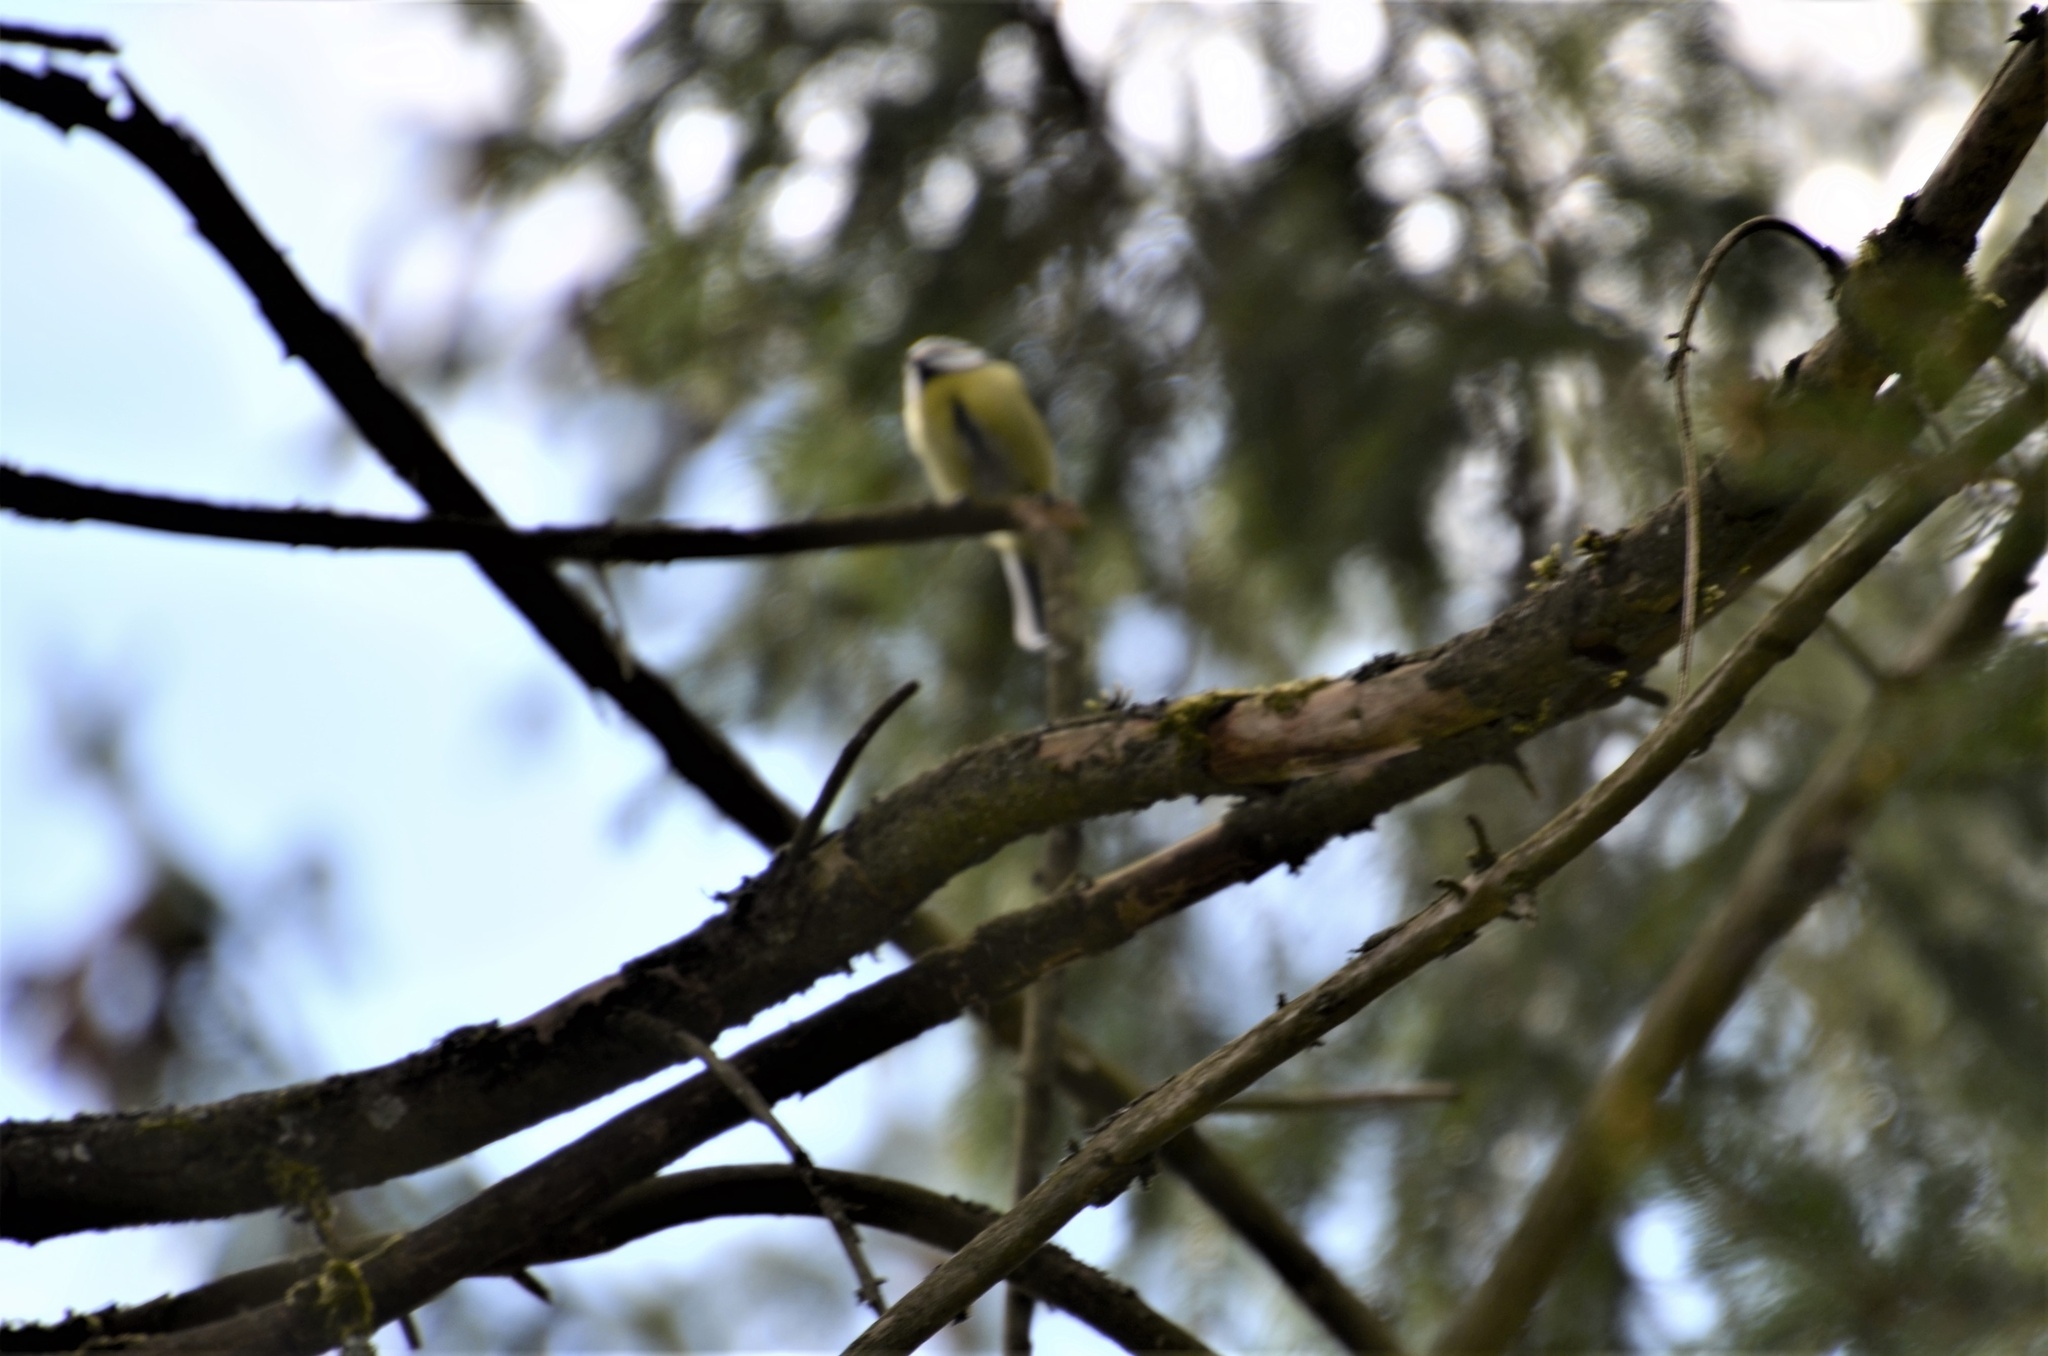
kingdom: Animalia
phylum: Chordata
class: Aves
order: Passeriformes
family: Paridae
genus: Cyanistes
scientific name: Cyanistes caeruleus
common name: Eurasian blue tit
